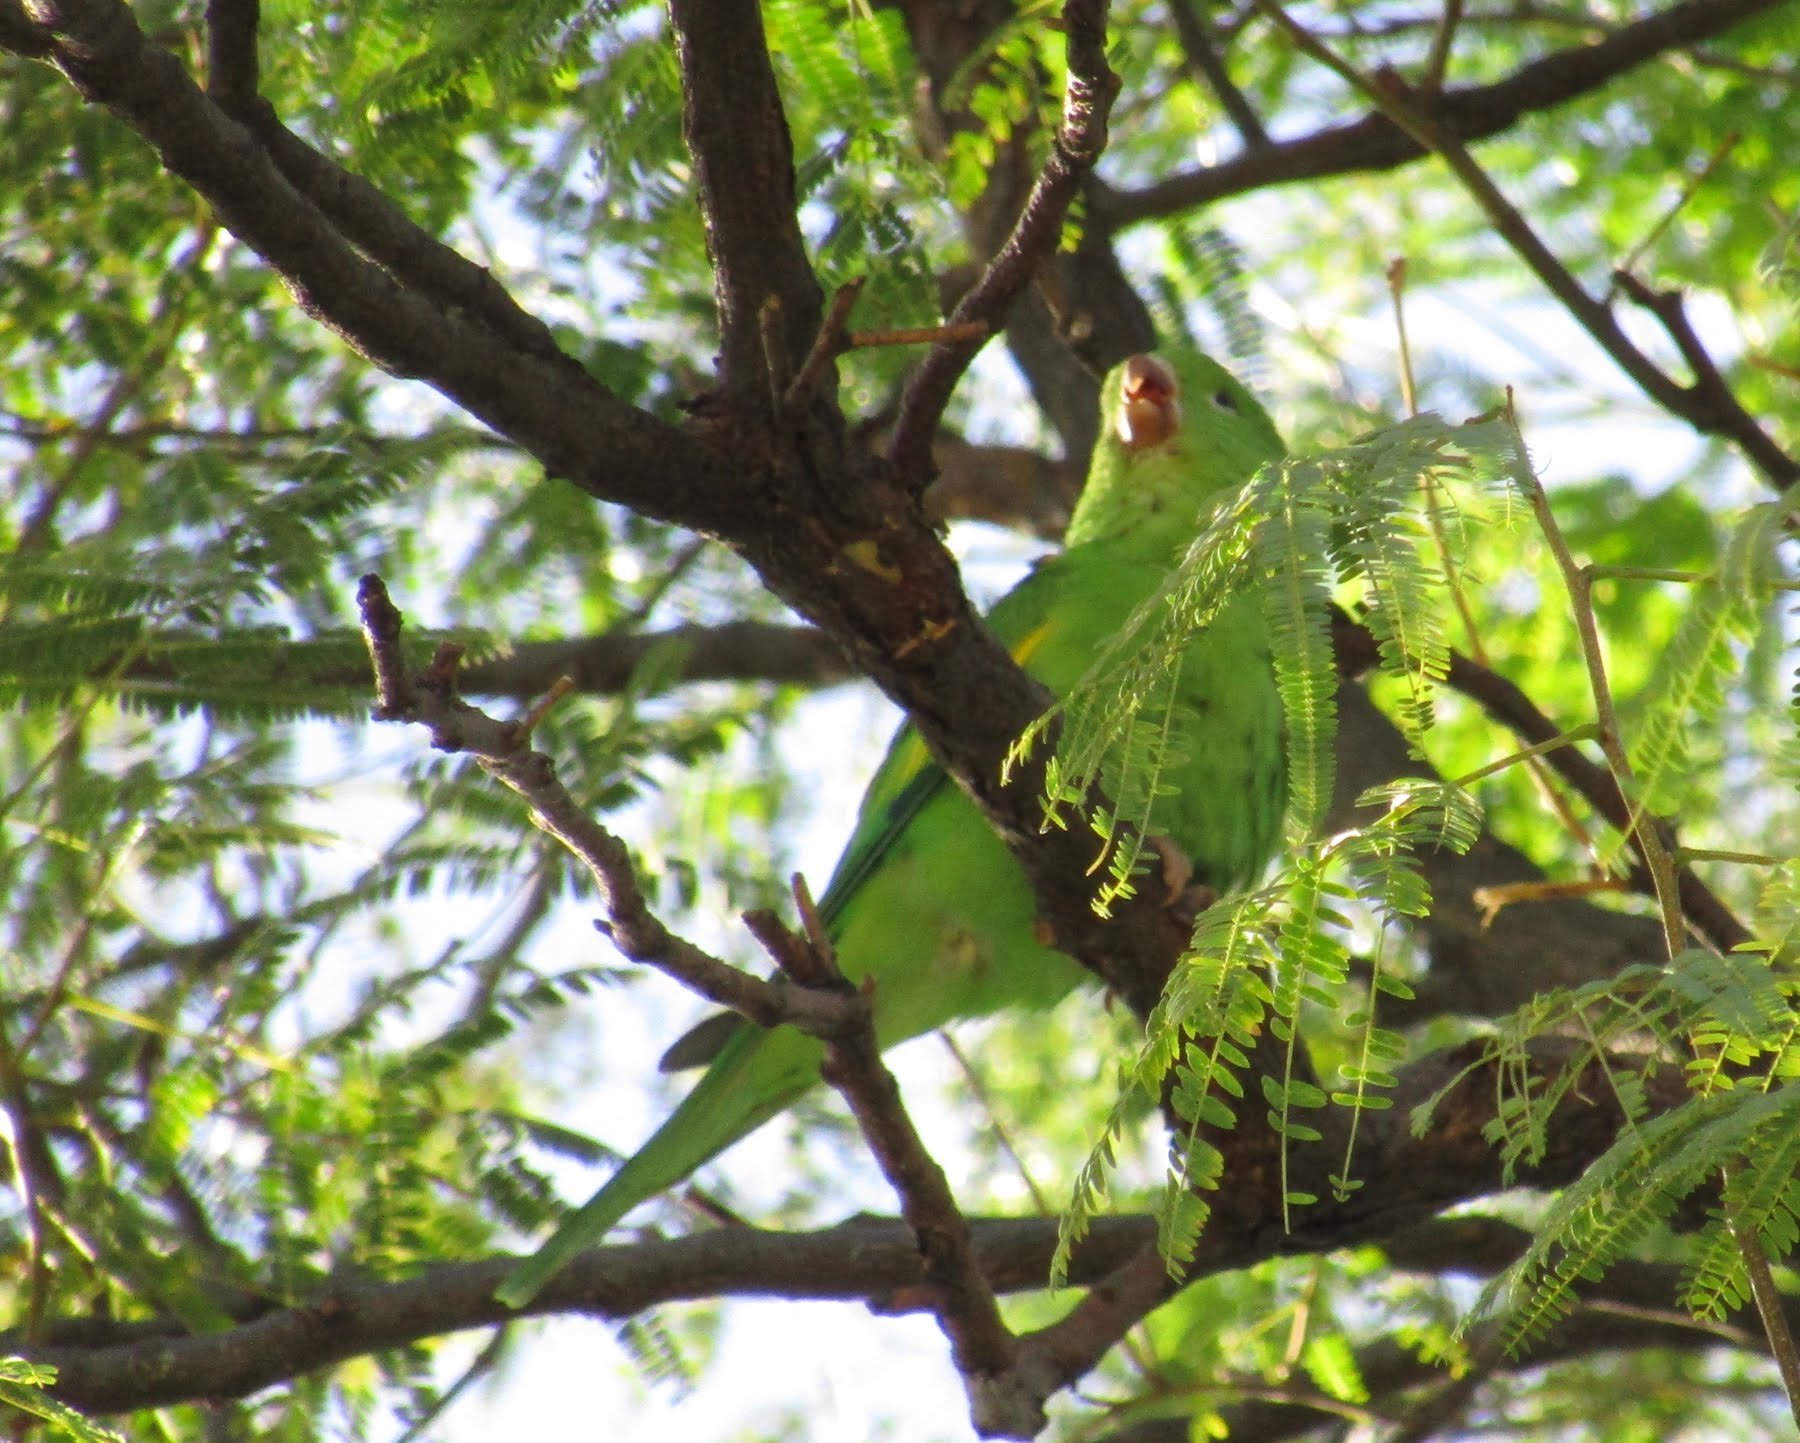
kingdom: Animalia
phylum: Chordata
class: Aves
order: Psittaciformes
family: Psittacidae
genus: Brotogeris
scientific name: Brotogeris chiriri
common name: Yellow-chevroned parakeet
